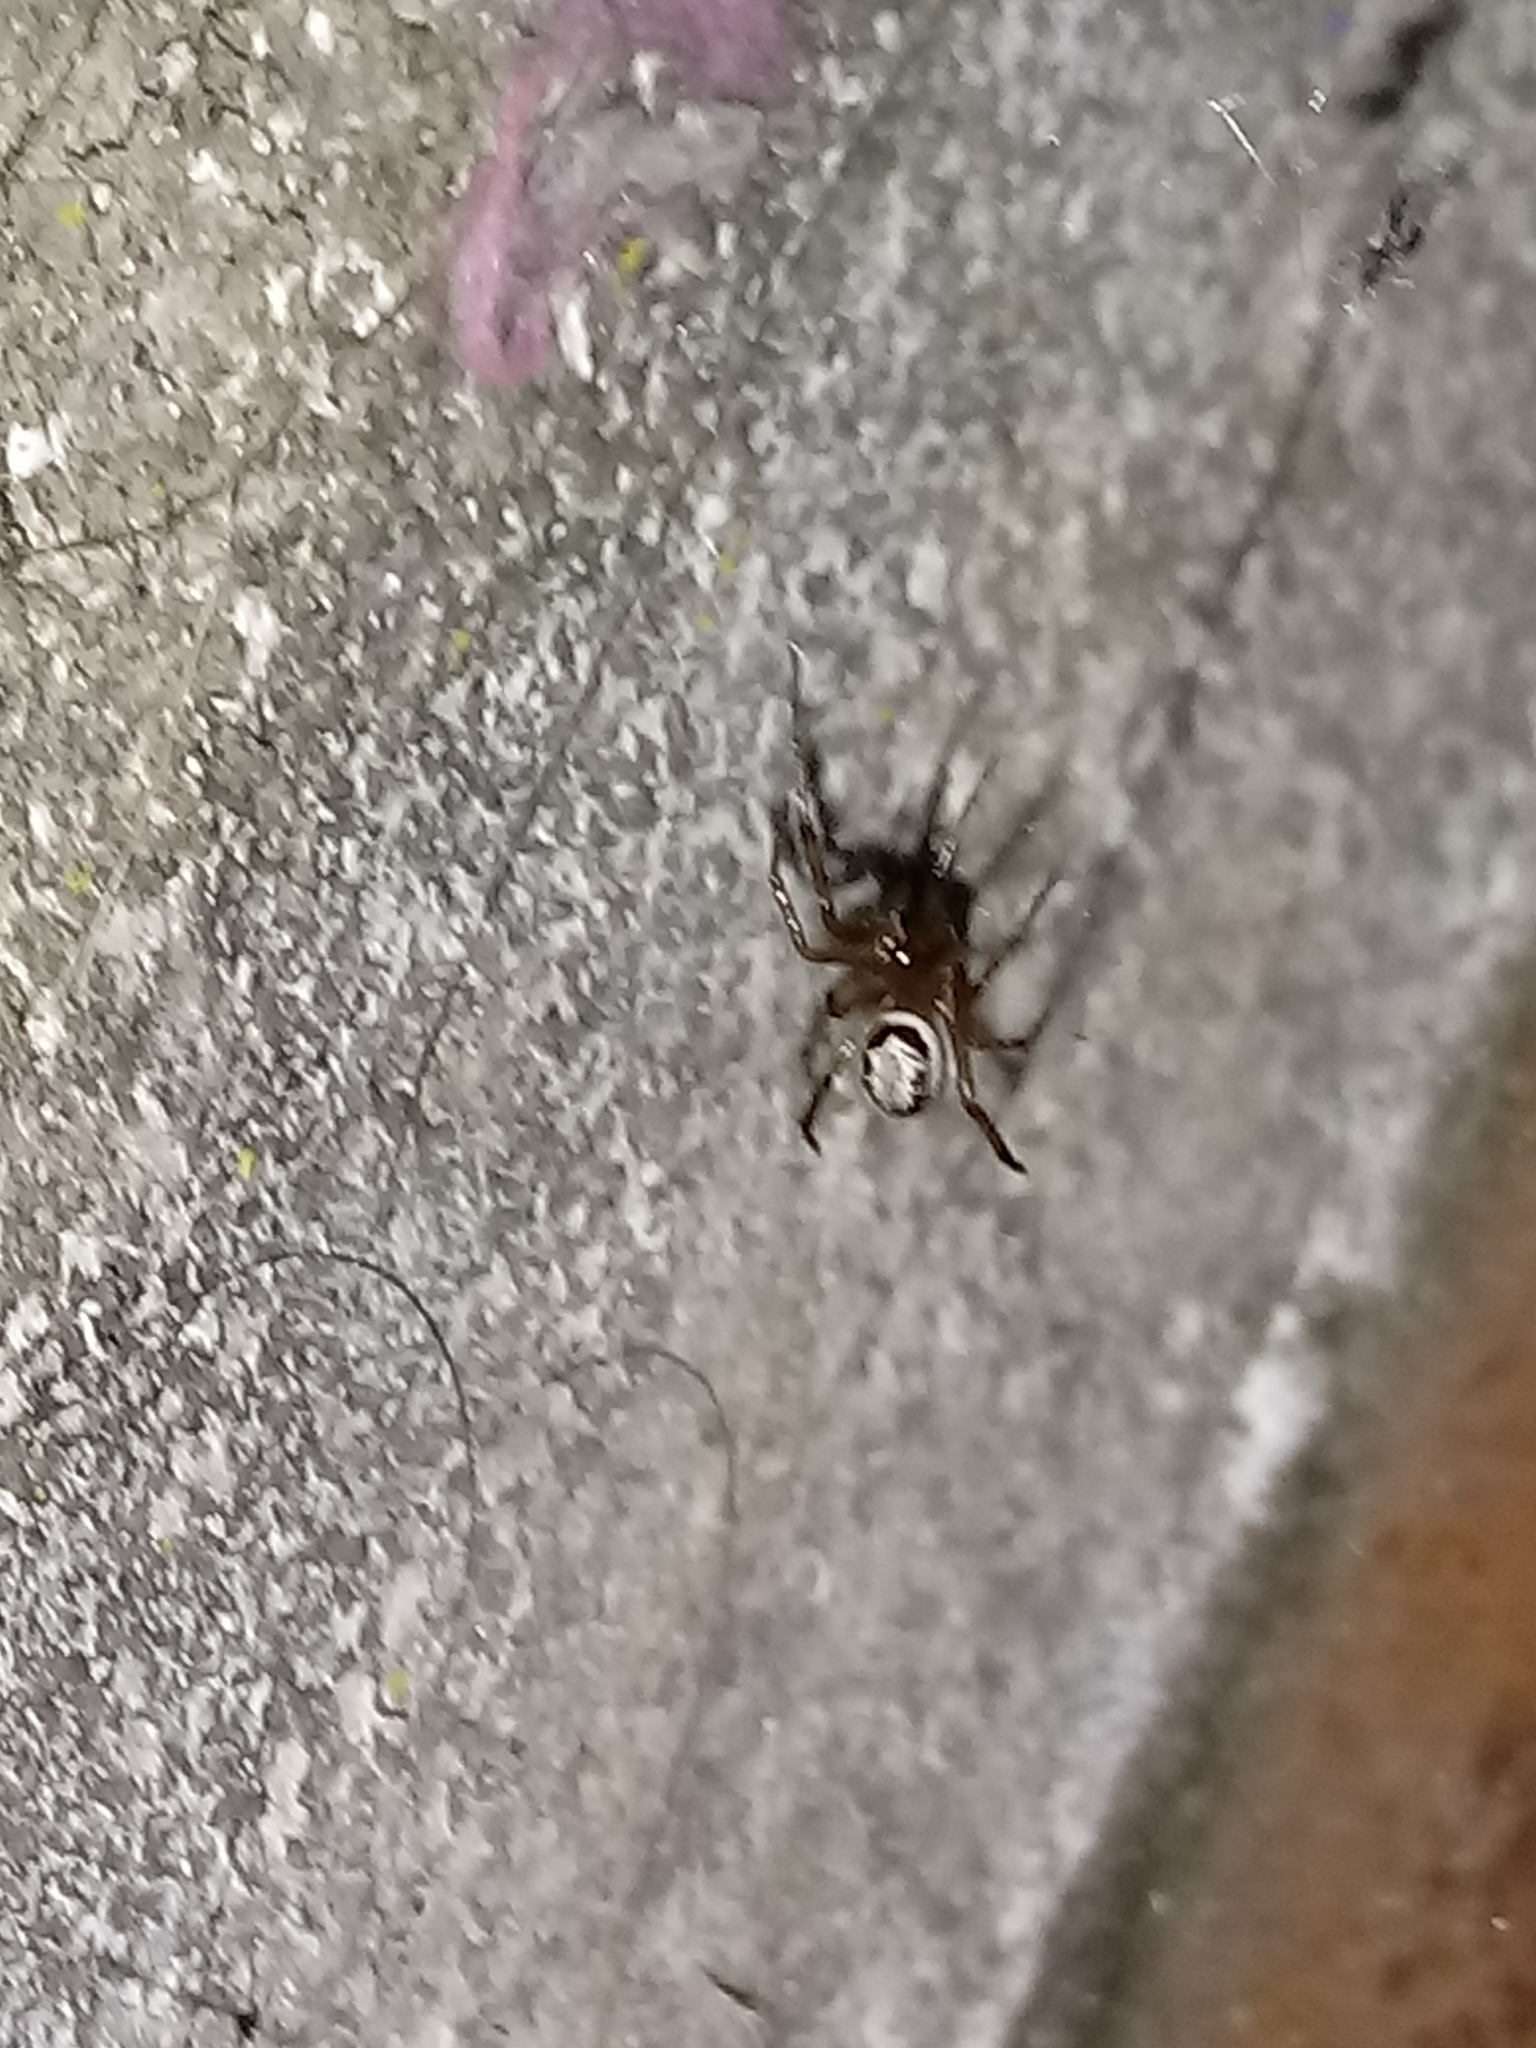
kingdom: Animalia
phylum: Arthropoda
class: Arachnida
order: Araneae
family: Theridiidae
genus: Steatoda
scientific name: Steatoda nobilis
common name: Cobweb weaver
